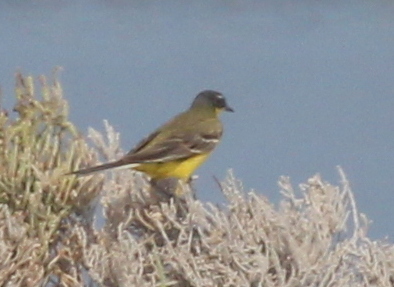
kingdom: Animalia
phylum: Chordata
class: Aves
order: Passeriformes
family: Motacillidae
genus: Motacilla
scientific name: Motacilla flava
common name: Western yellow wagtail
